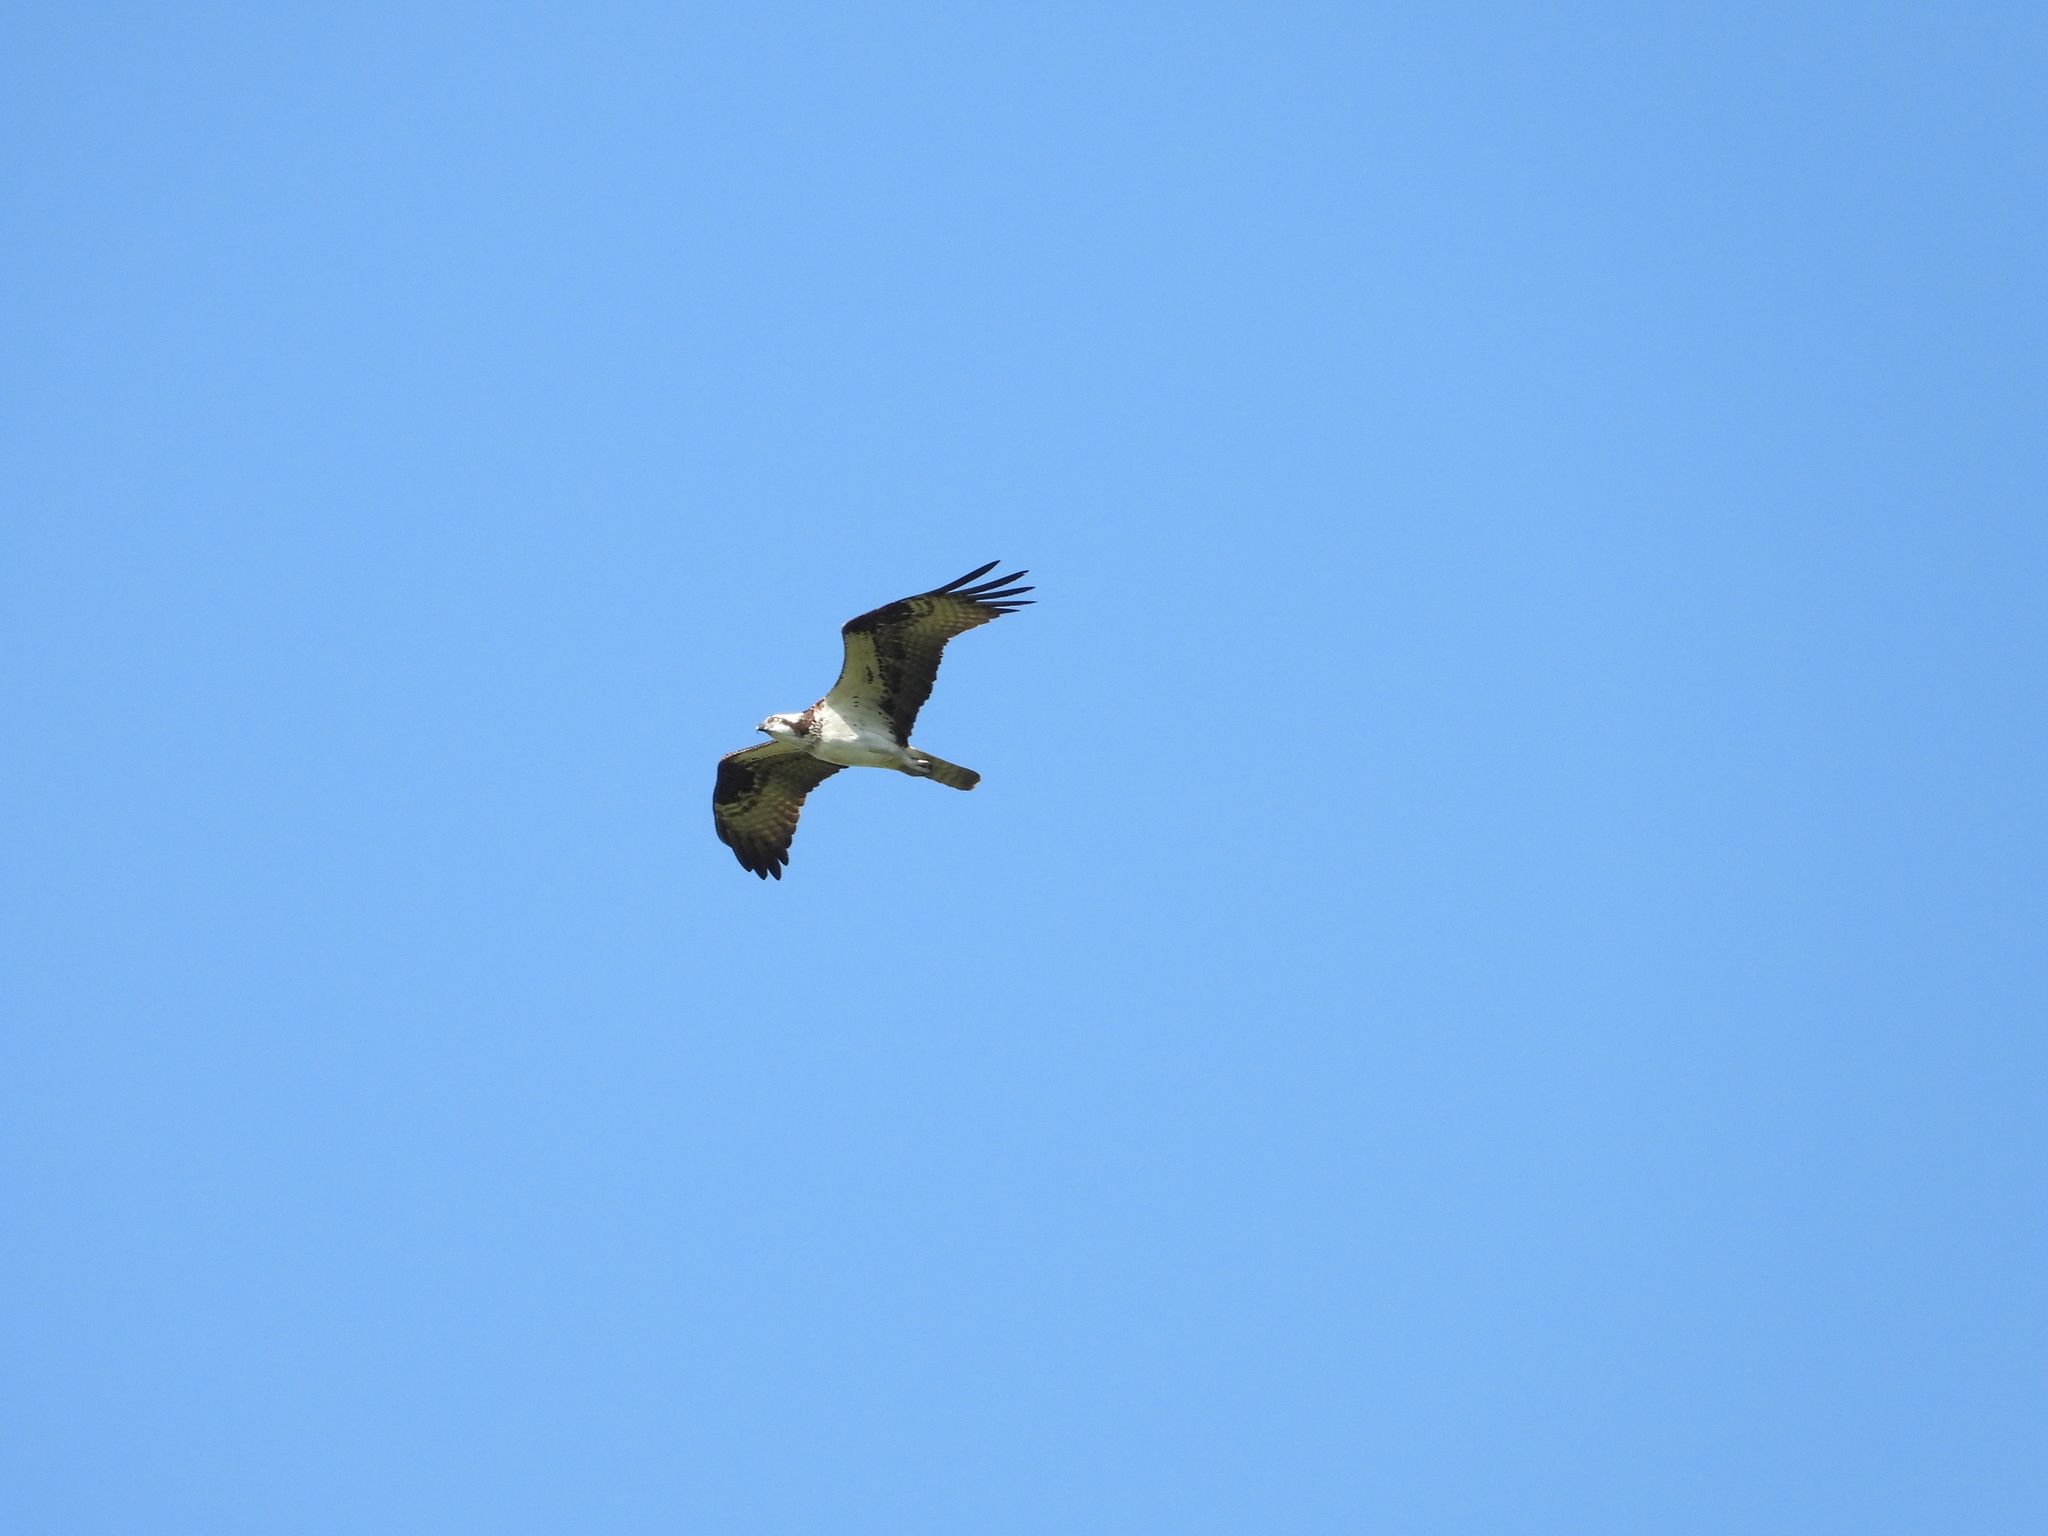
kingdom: Animalia
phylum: Chordata
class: Aves
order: Accipitriformes
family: Pandionidae
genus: Pandion
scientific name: Pandion haliaetus
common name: Osprey
